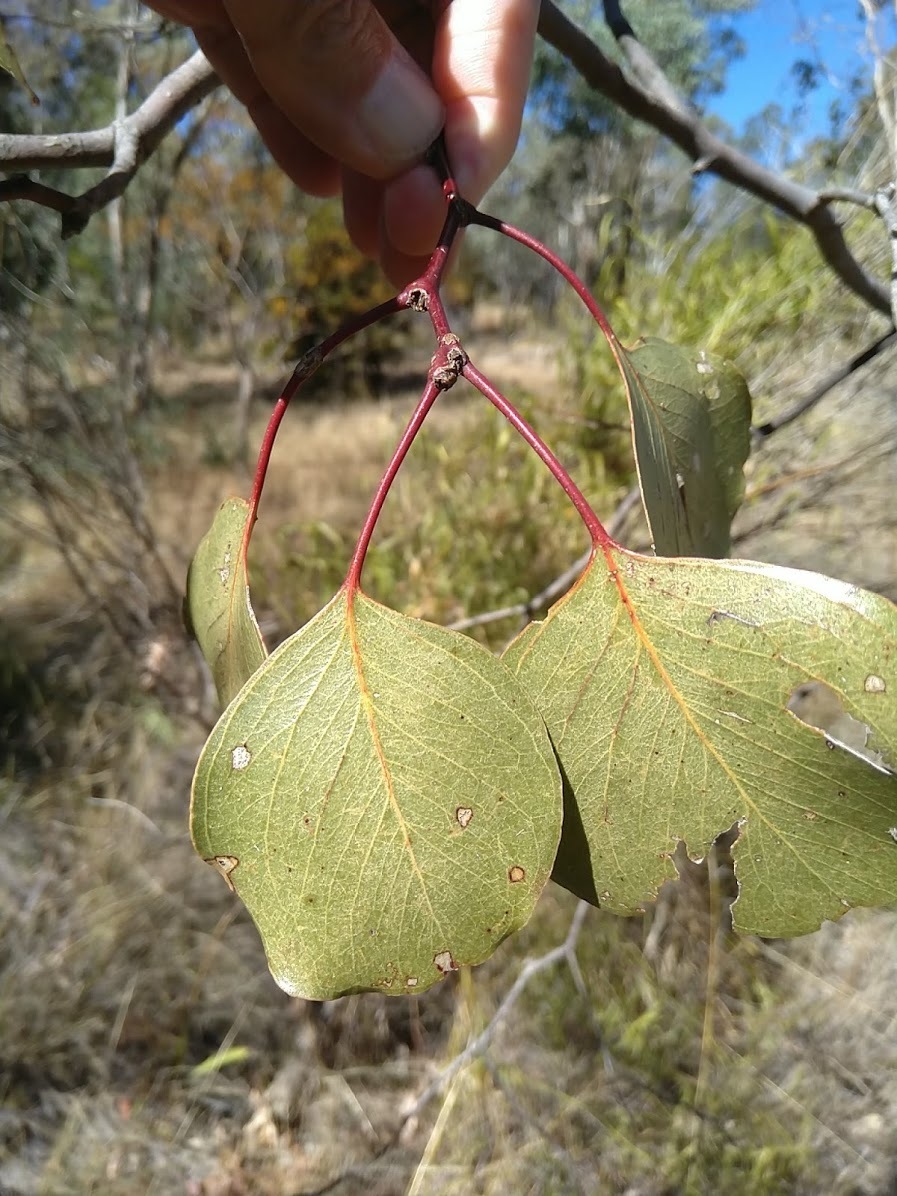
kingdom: Plantae
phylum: Tracheophyta
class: Magnoliopsida
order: Myrtales
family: Myrtaceae
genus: Eucalyptus
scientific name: Eucalyptus populnea
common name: Bimble box
